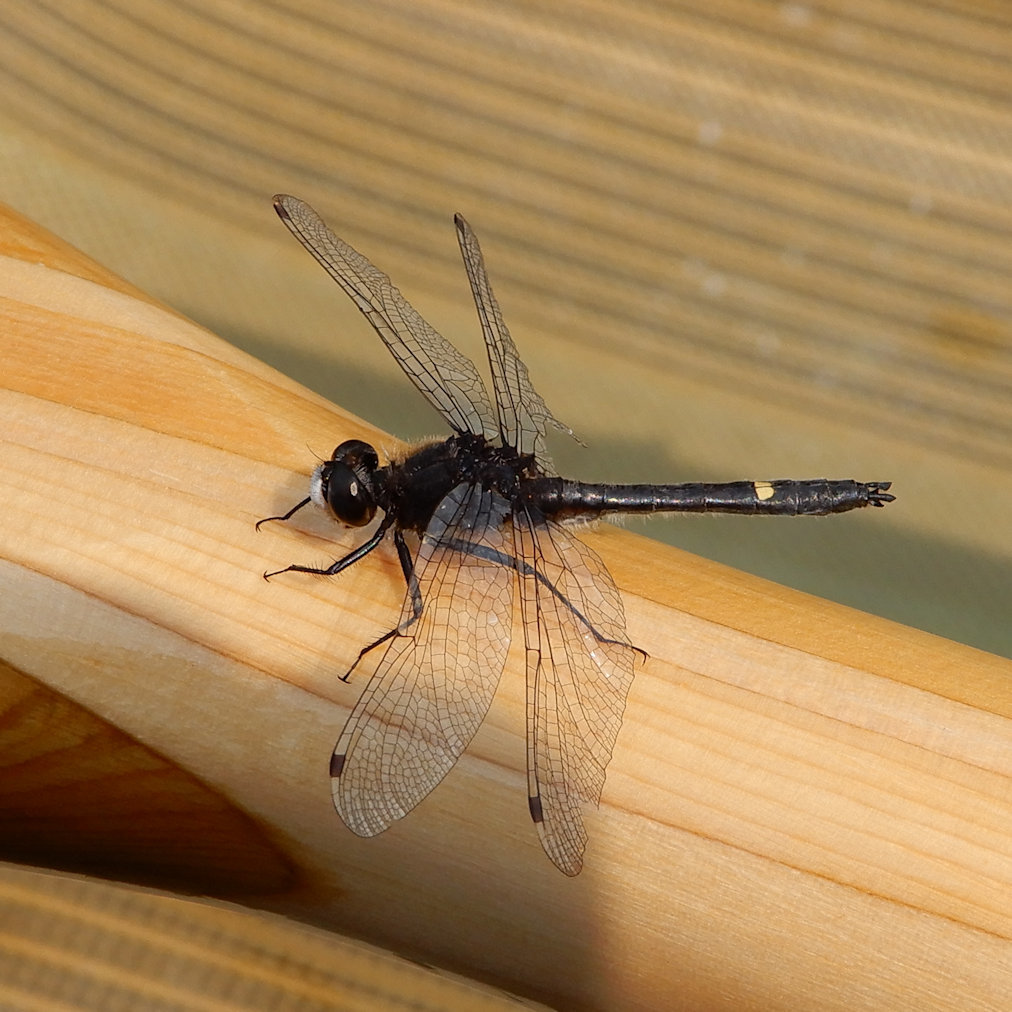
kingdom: Animalia
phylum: Arthropoda
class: Insecta
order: Odonata
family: Libellulidae
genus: Leucorrhinia
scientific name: Leucorrhinia intacta
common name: Dot-tailed whiteface
